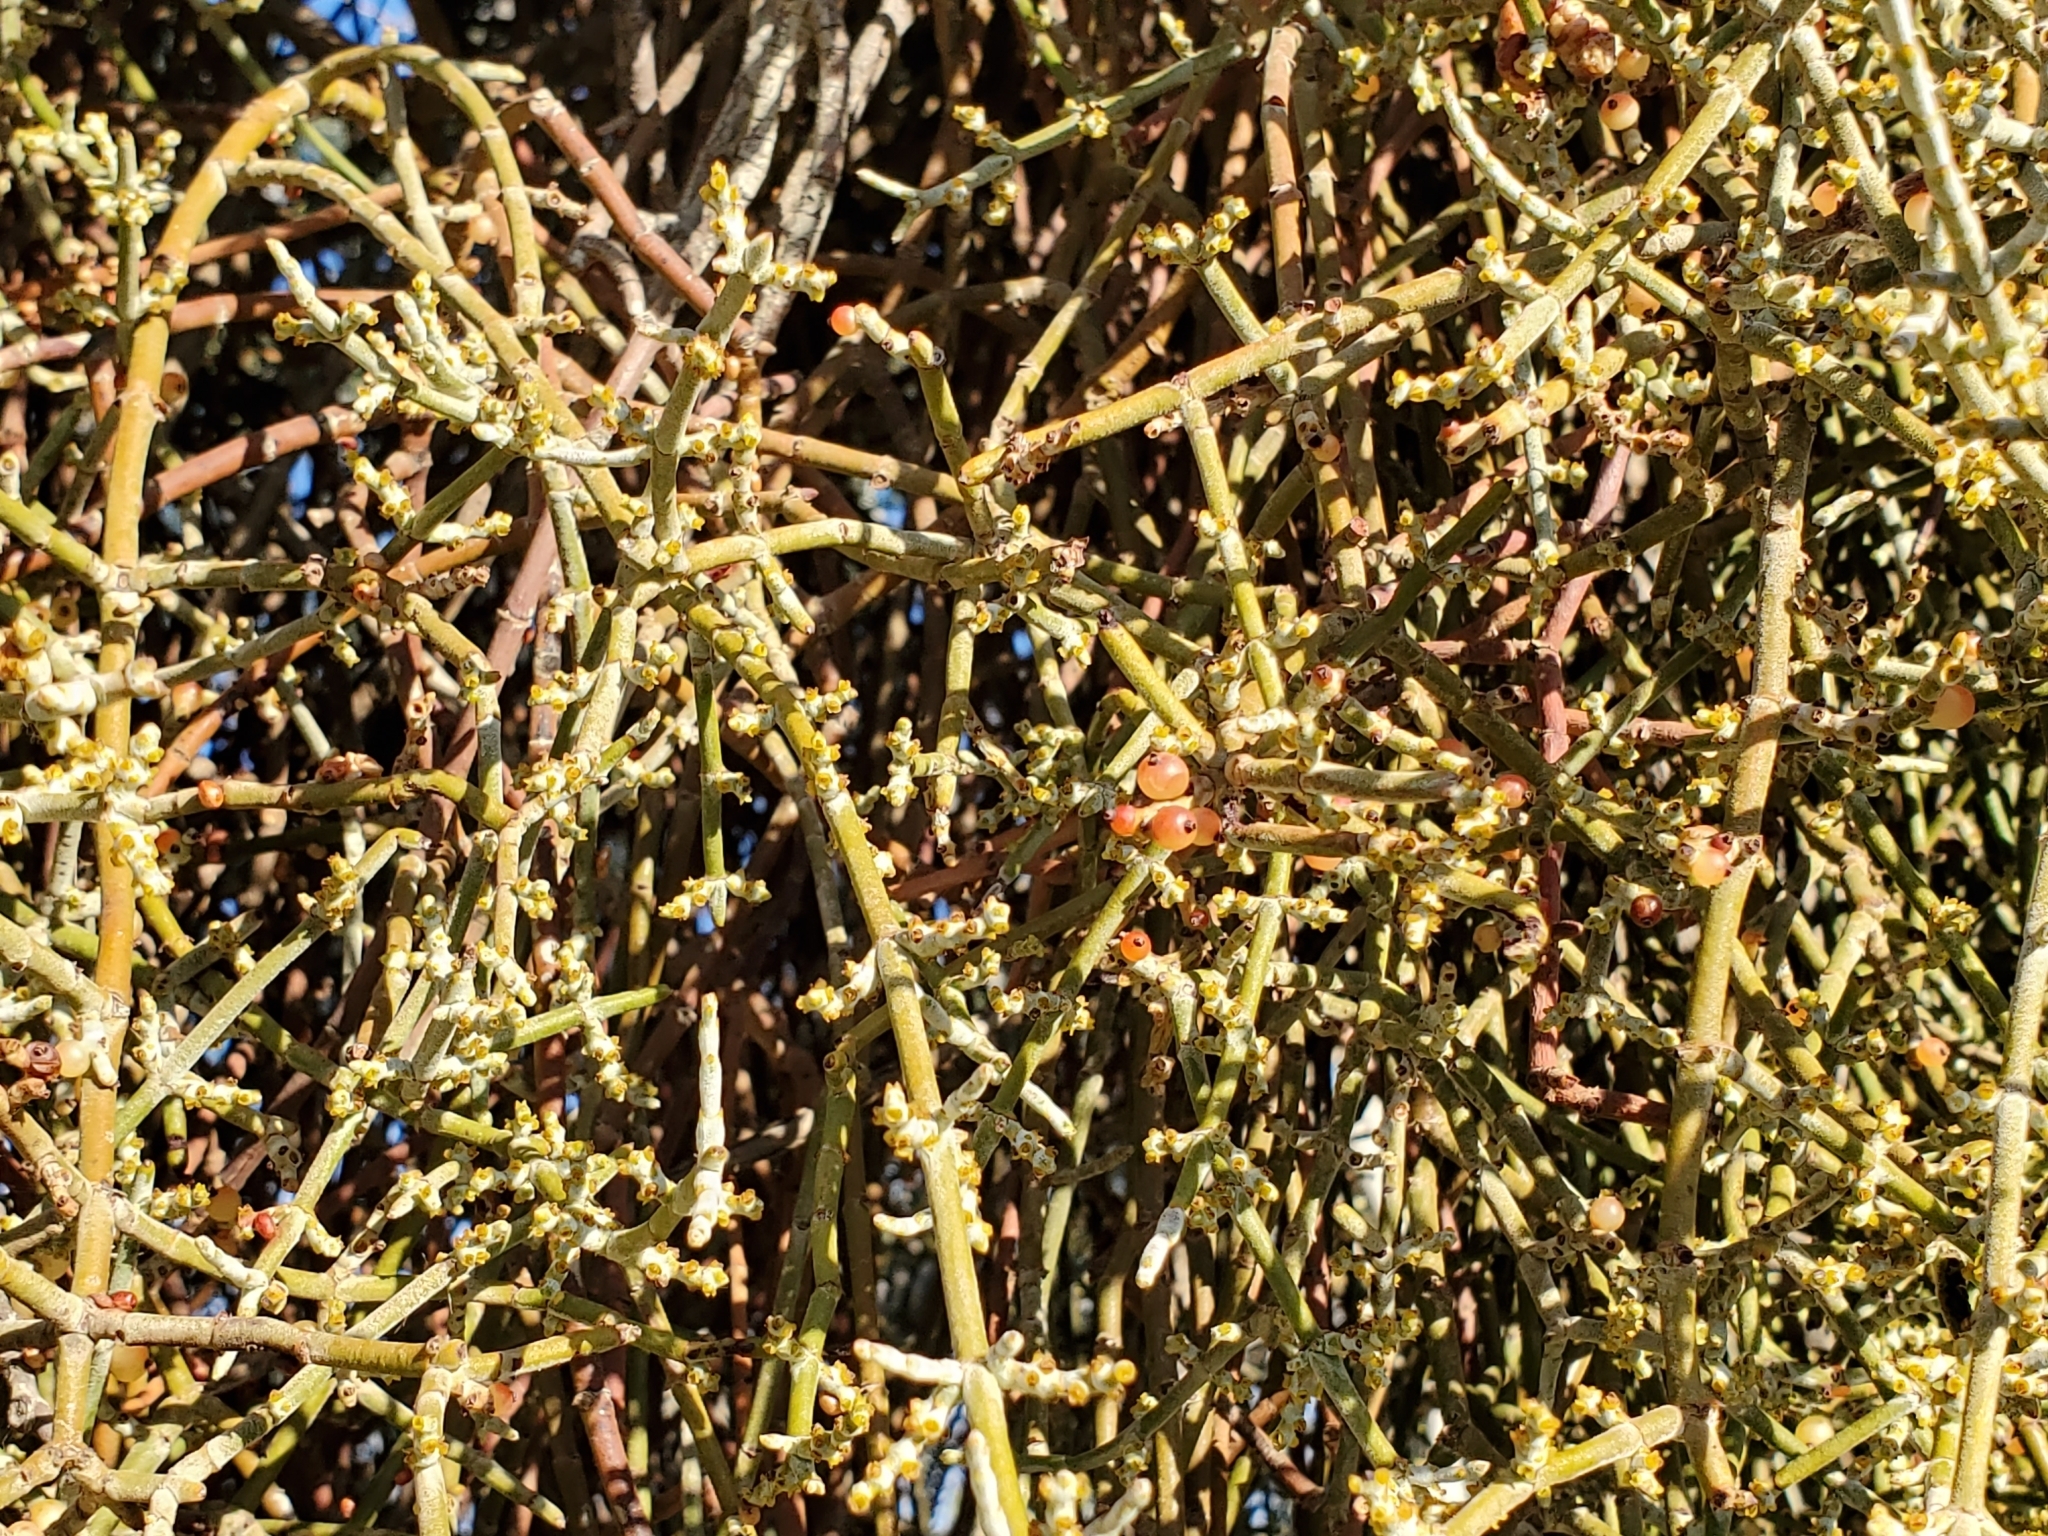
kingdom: Plantae
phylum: Tracheophyta
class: Magnoliopsida
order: Santalales
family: Viscaceae
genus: Phoradendron
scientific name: Phoradendron californicum
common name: Acacia mistletoe
